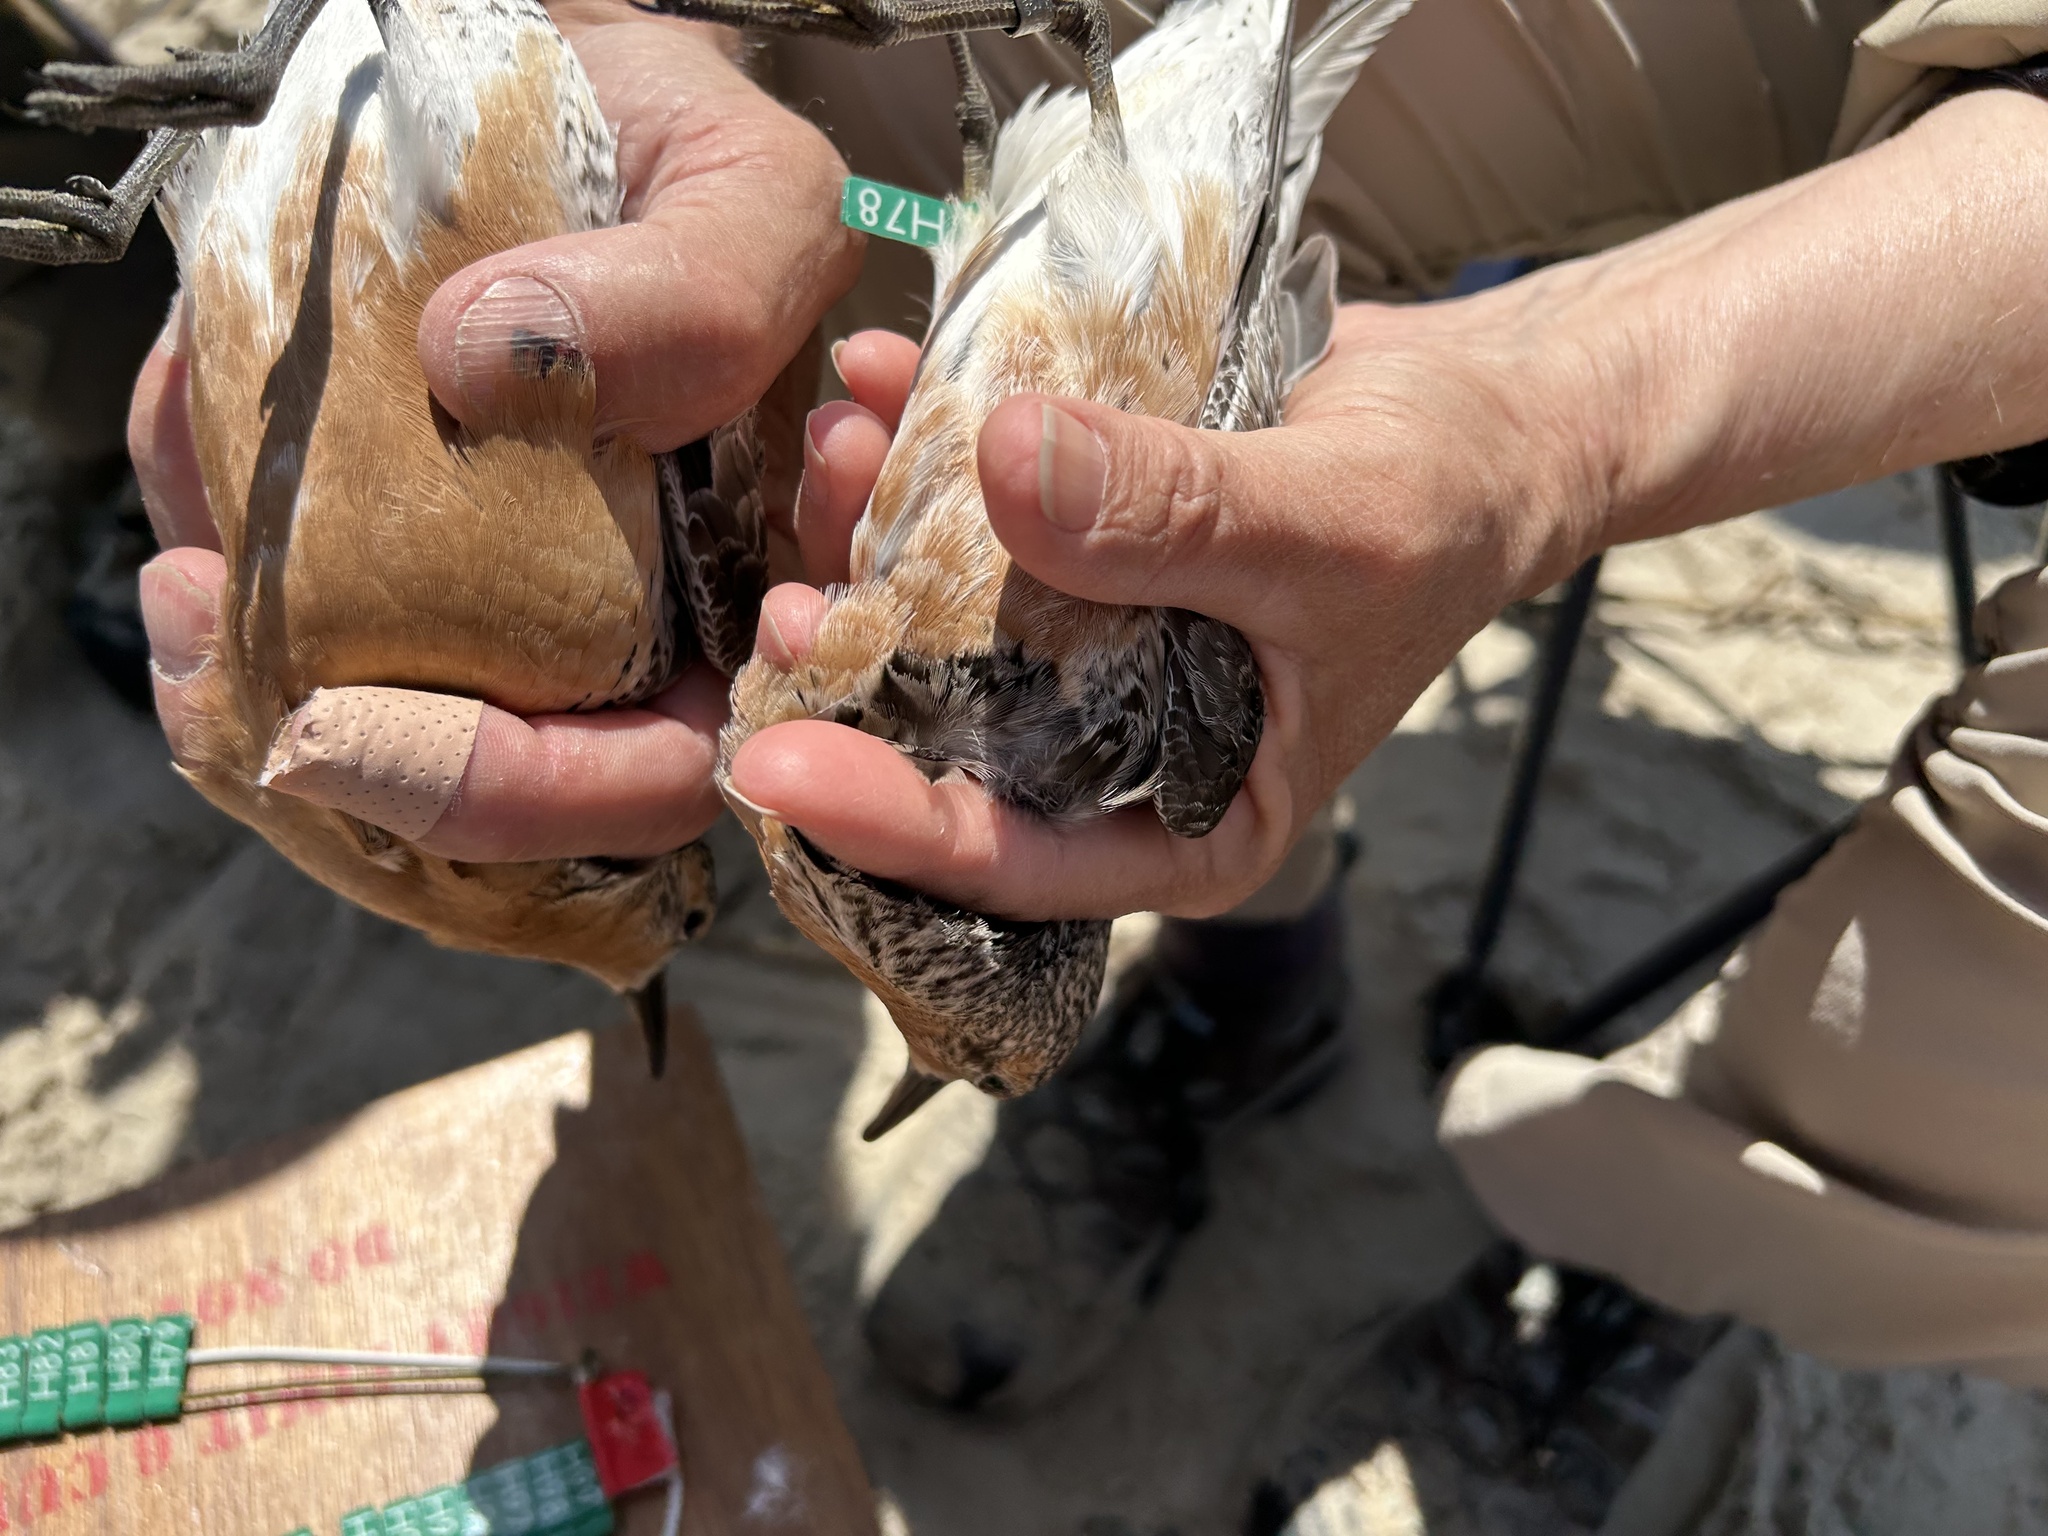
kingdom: Animalia
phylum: Chordata
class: Aves
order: Charadriiformes
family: Scolopacidae
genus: Calidris
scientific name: Calidris canutus
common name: Red knot
